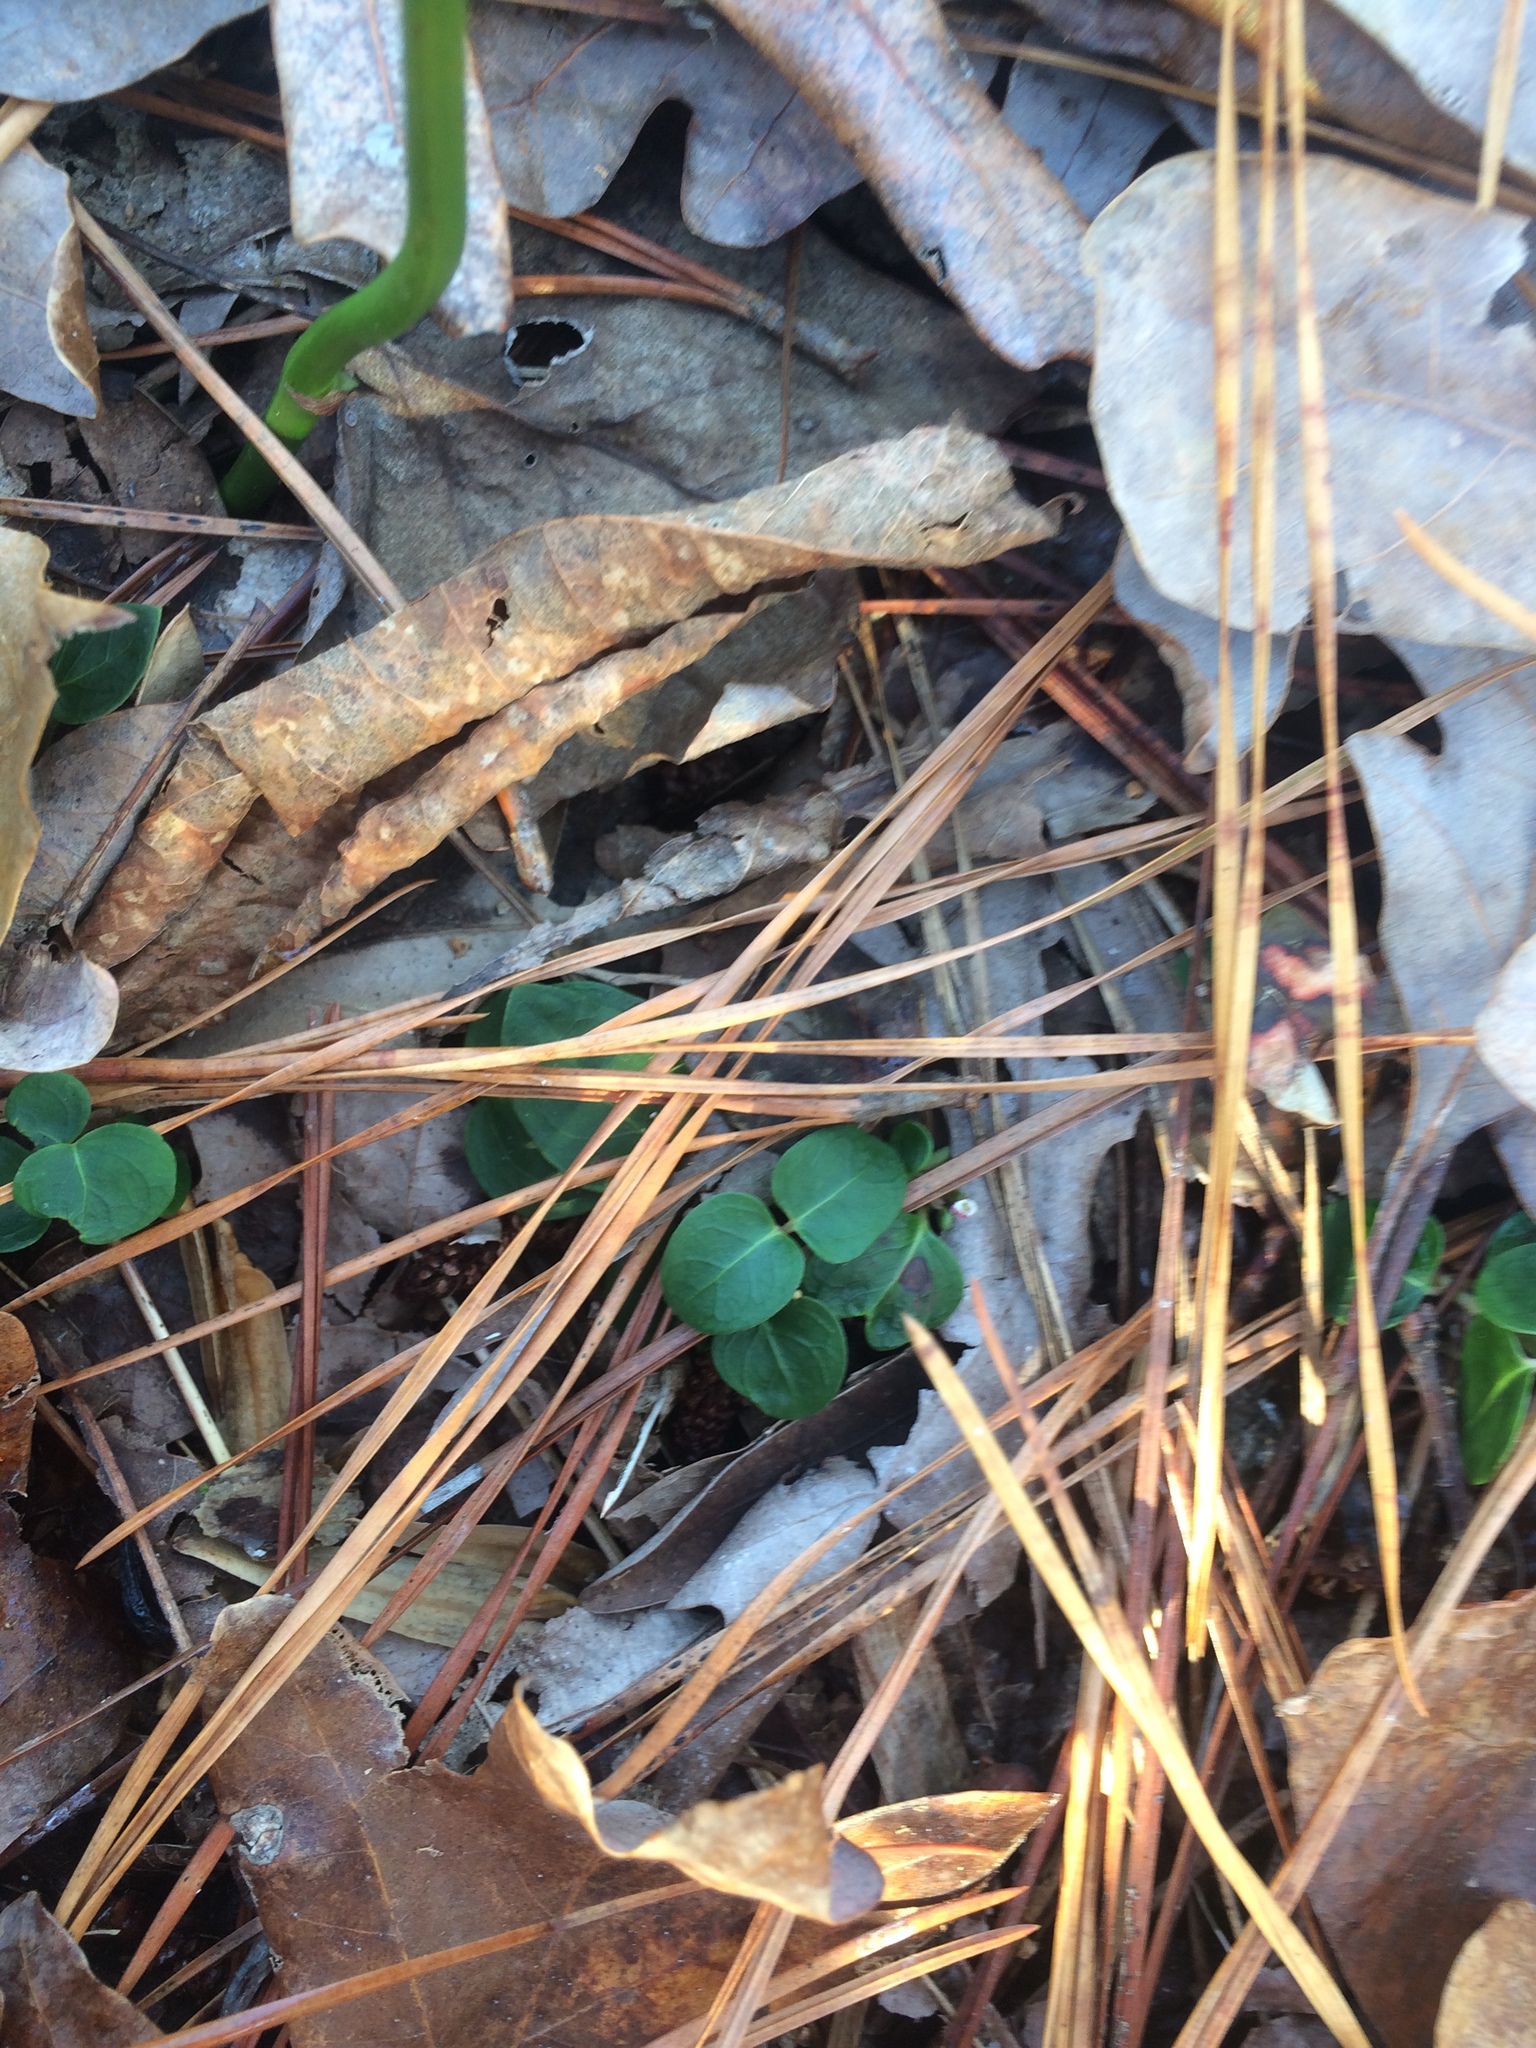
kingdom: Plantae
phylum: Tracheophyta
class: Magnoliopsida
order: Gentianales
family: Rubiaceae
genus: Mitchella
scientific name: Mitchella repens
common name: Partridge-berry
